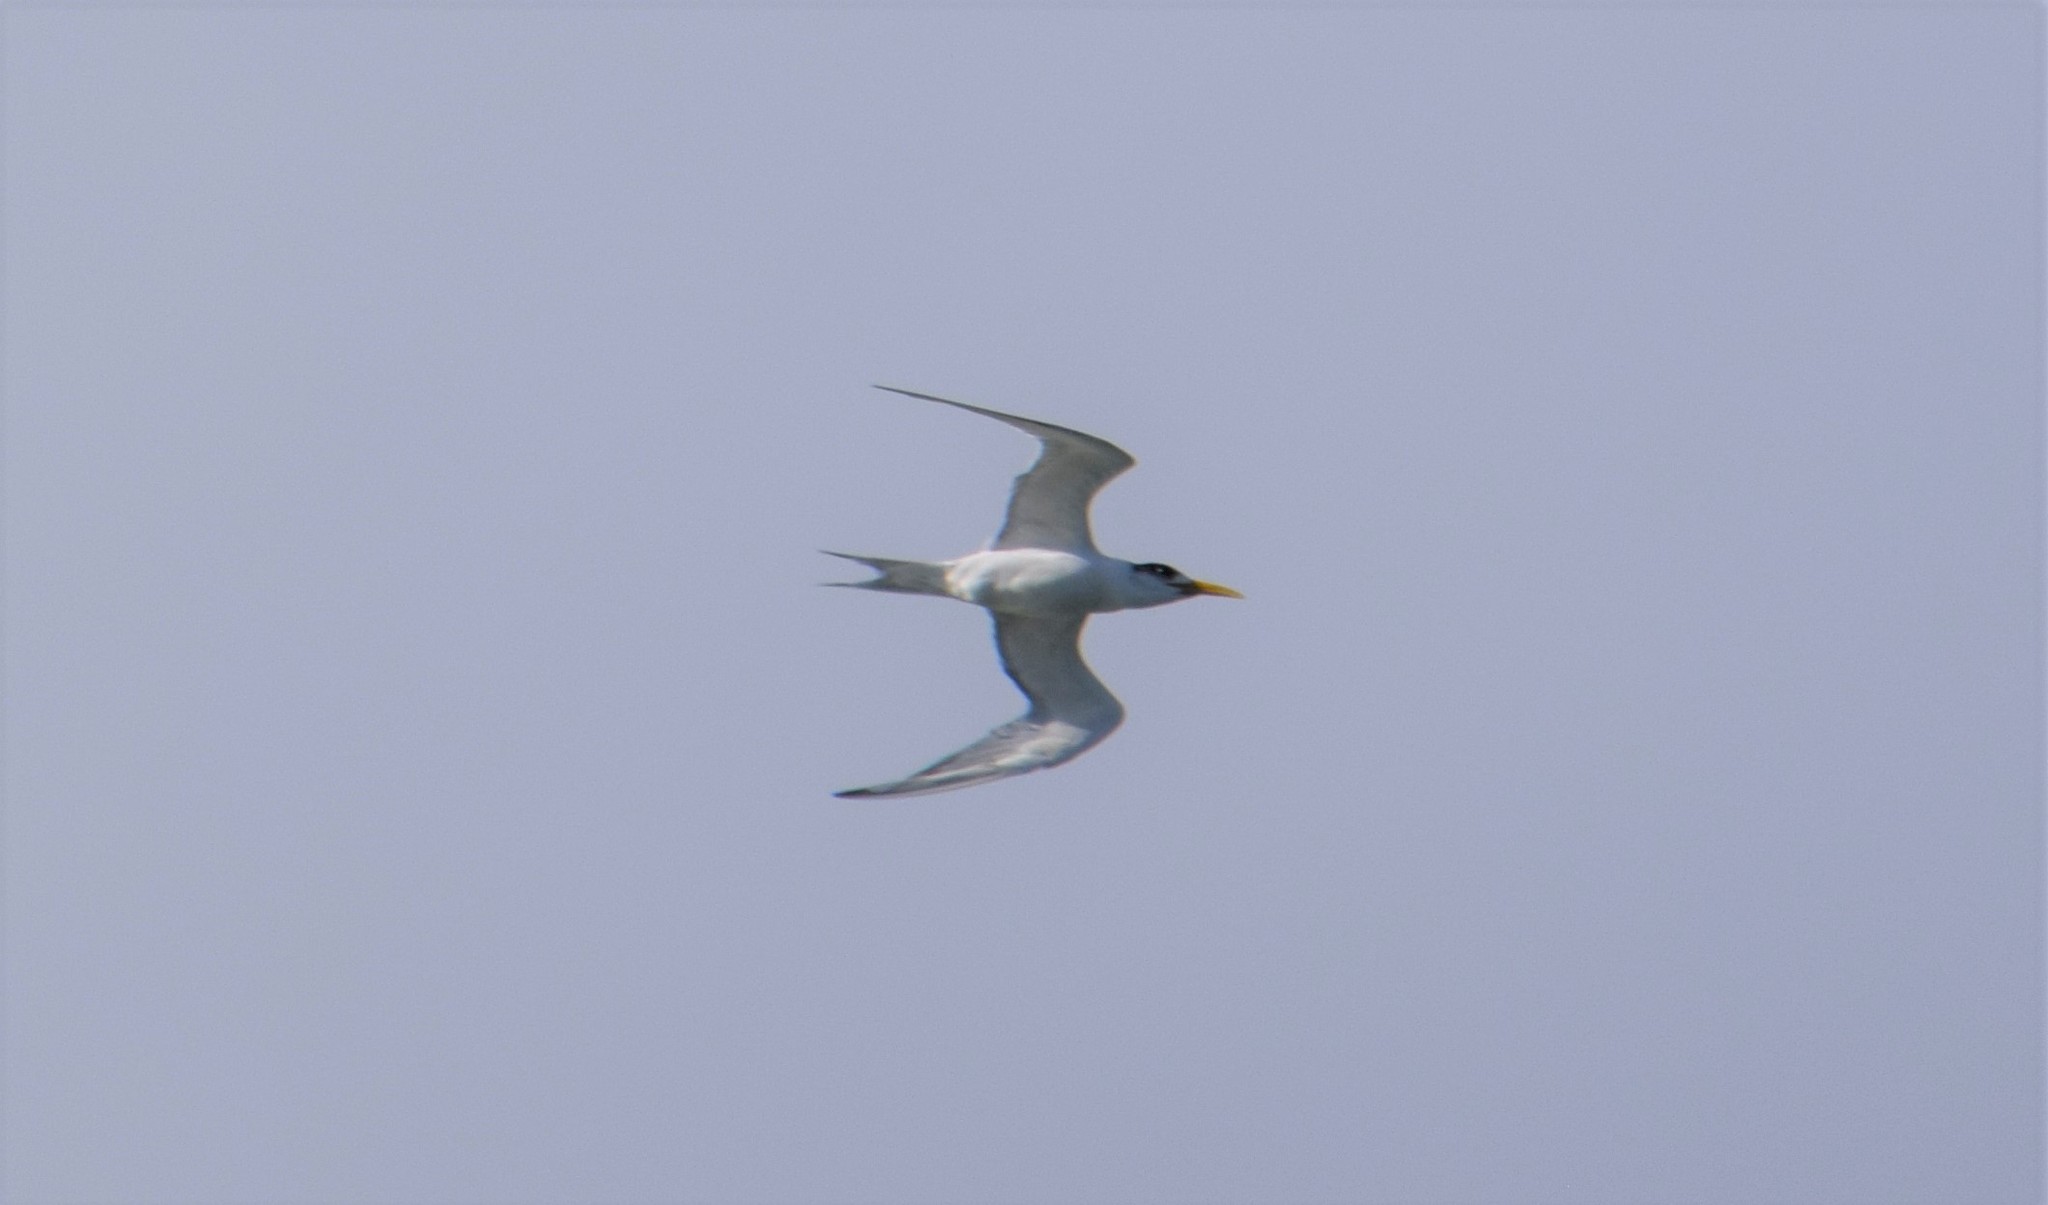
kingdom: Animalia
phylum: Chordata
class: Aves
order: Charadriiformes
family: Laridae
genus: Thalasseus
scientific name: Thalasseus bergii
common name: Greater crested tern
